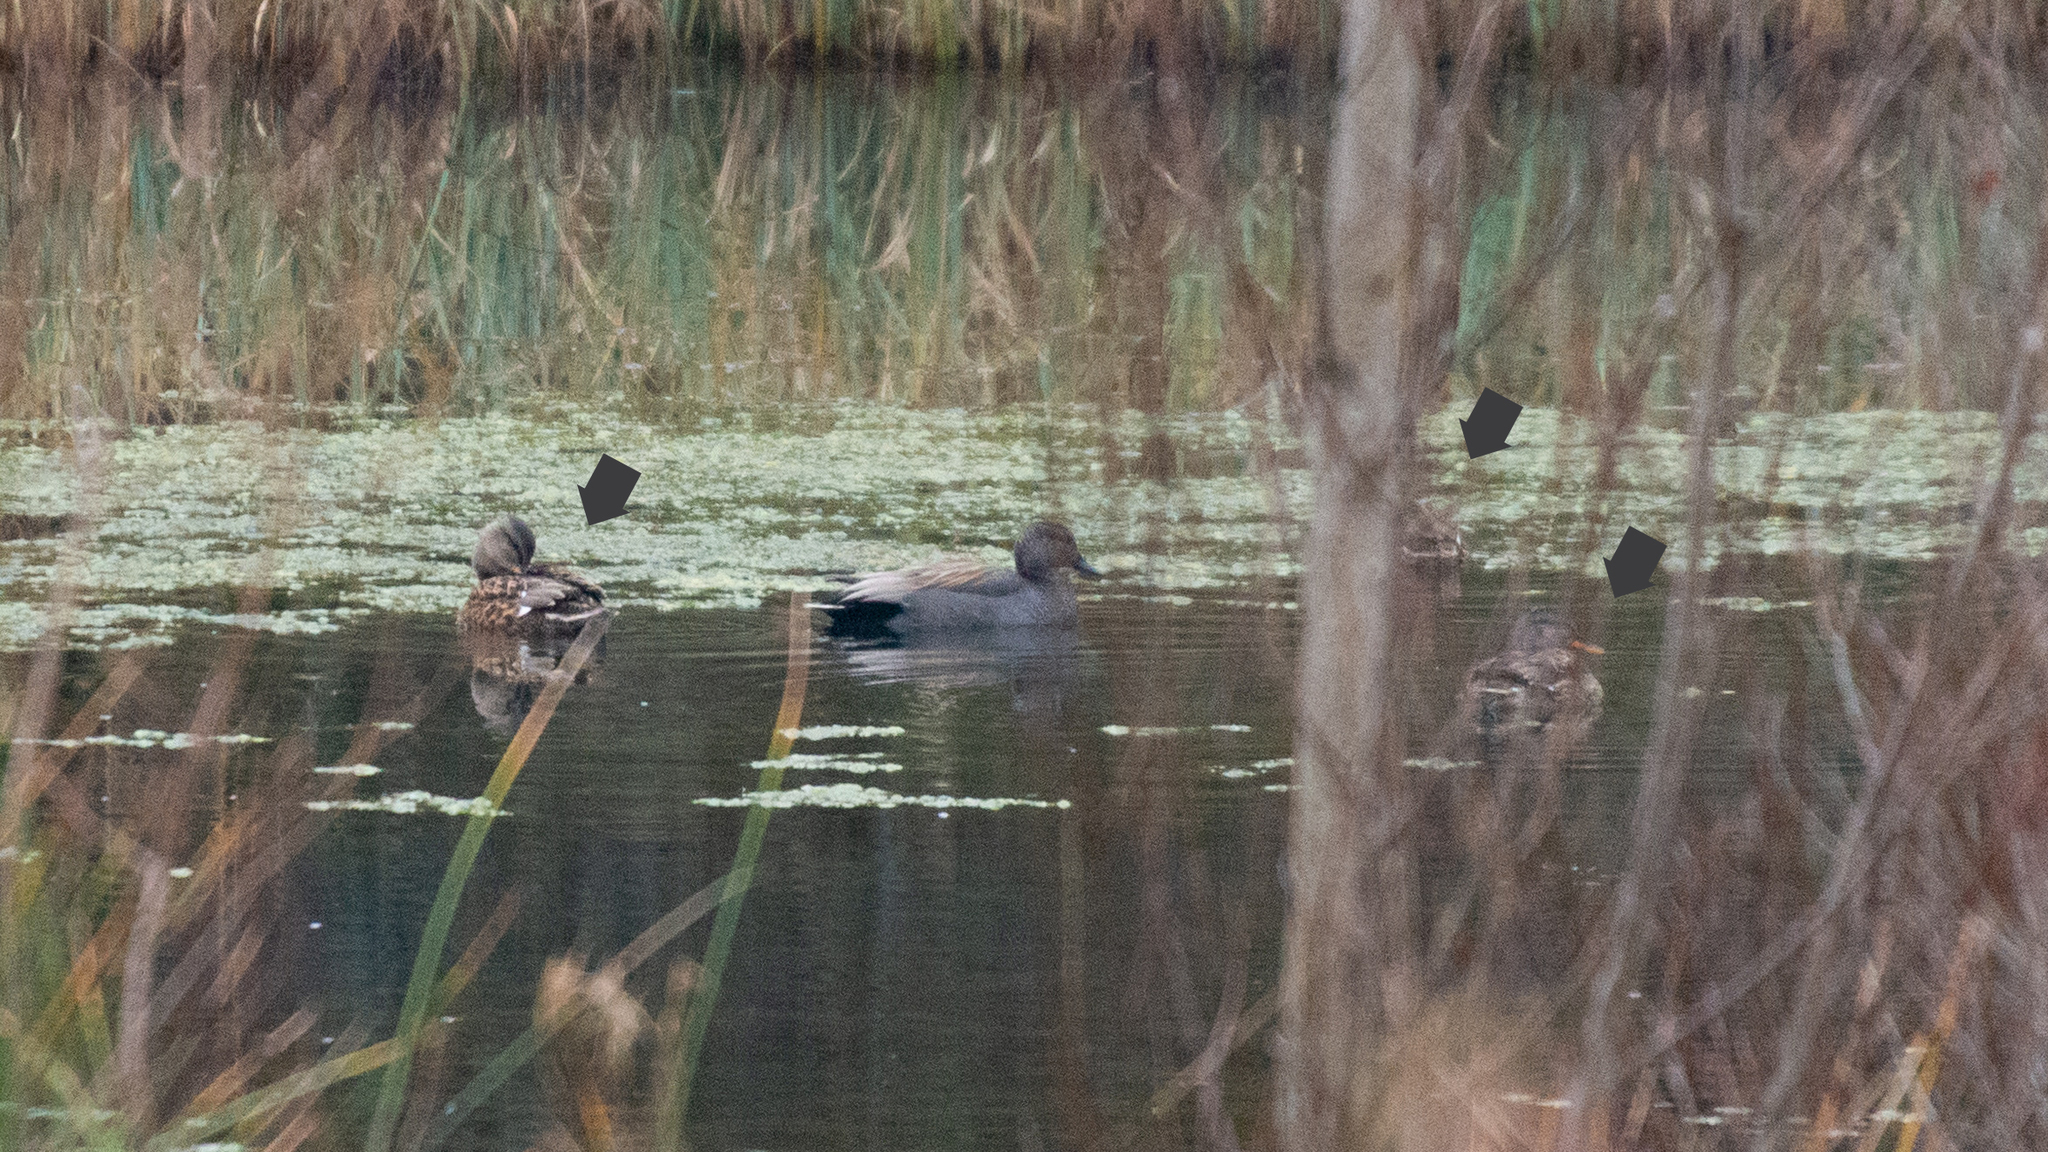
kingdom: Animalia
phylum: Chordata
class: Aves
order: Anseriformes
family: Anatidae
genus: Mareca
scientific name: Mareca strepera
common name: Gadwall
